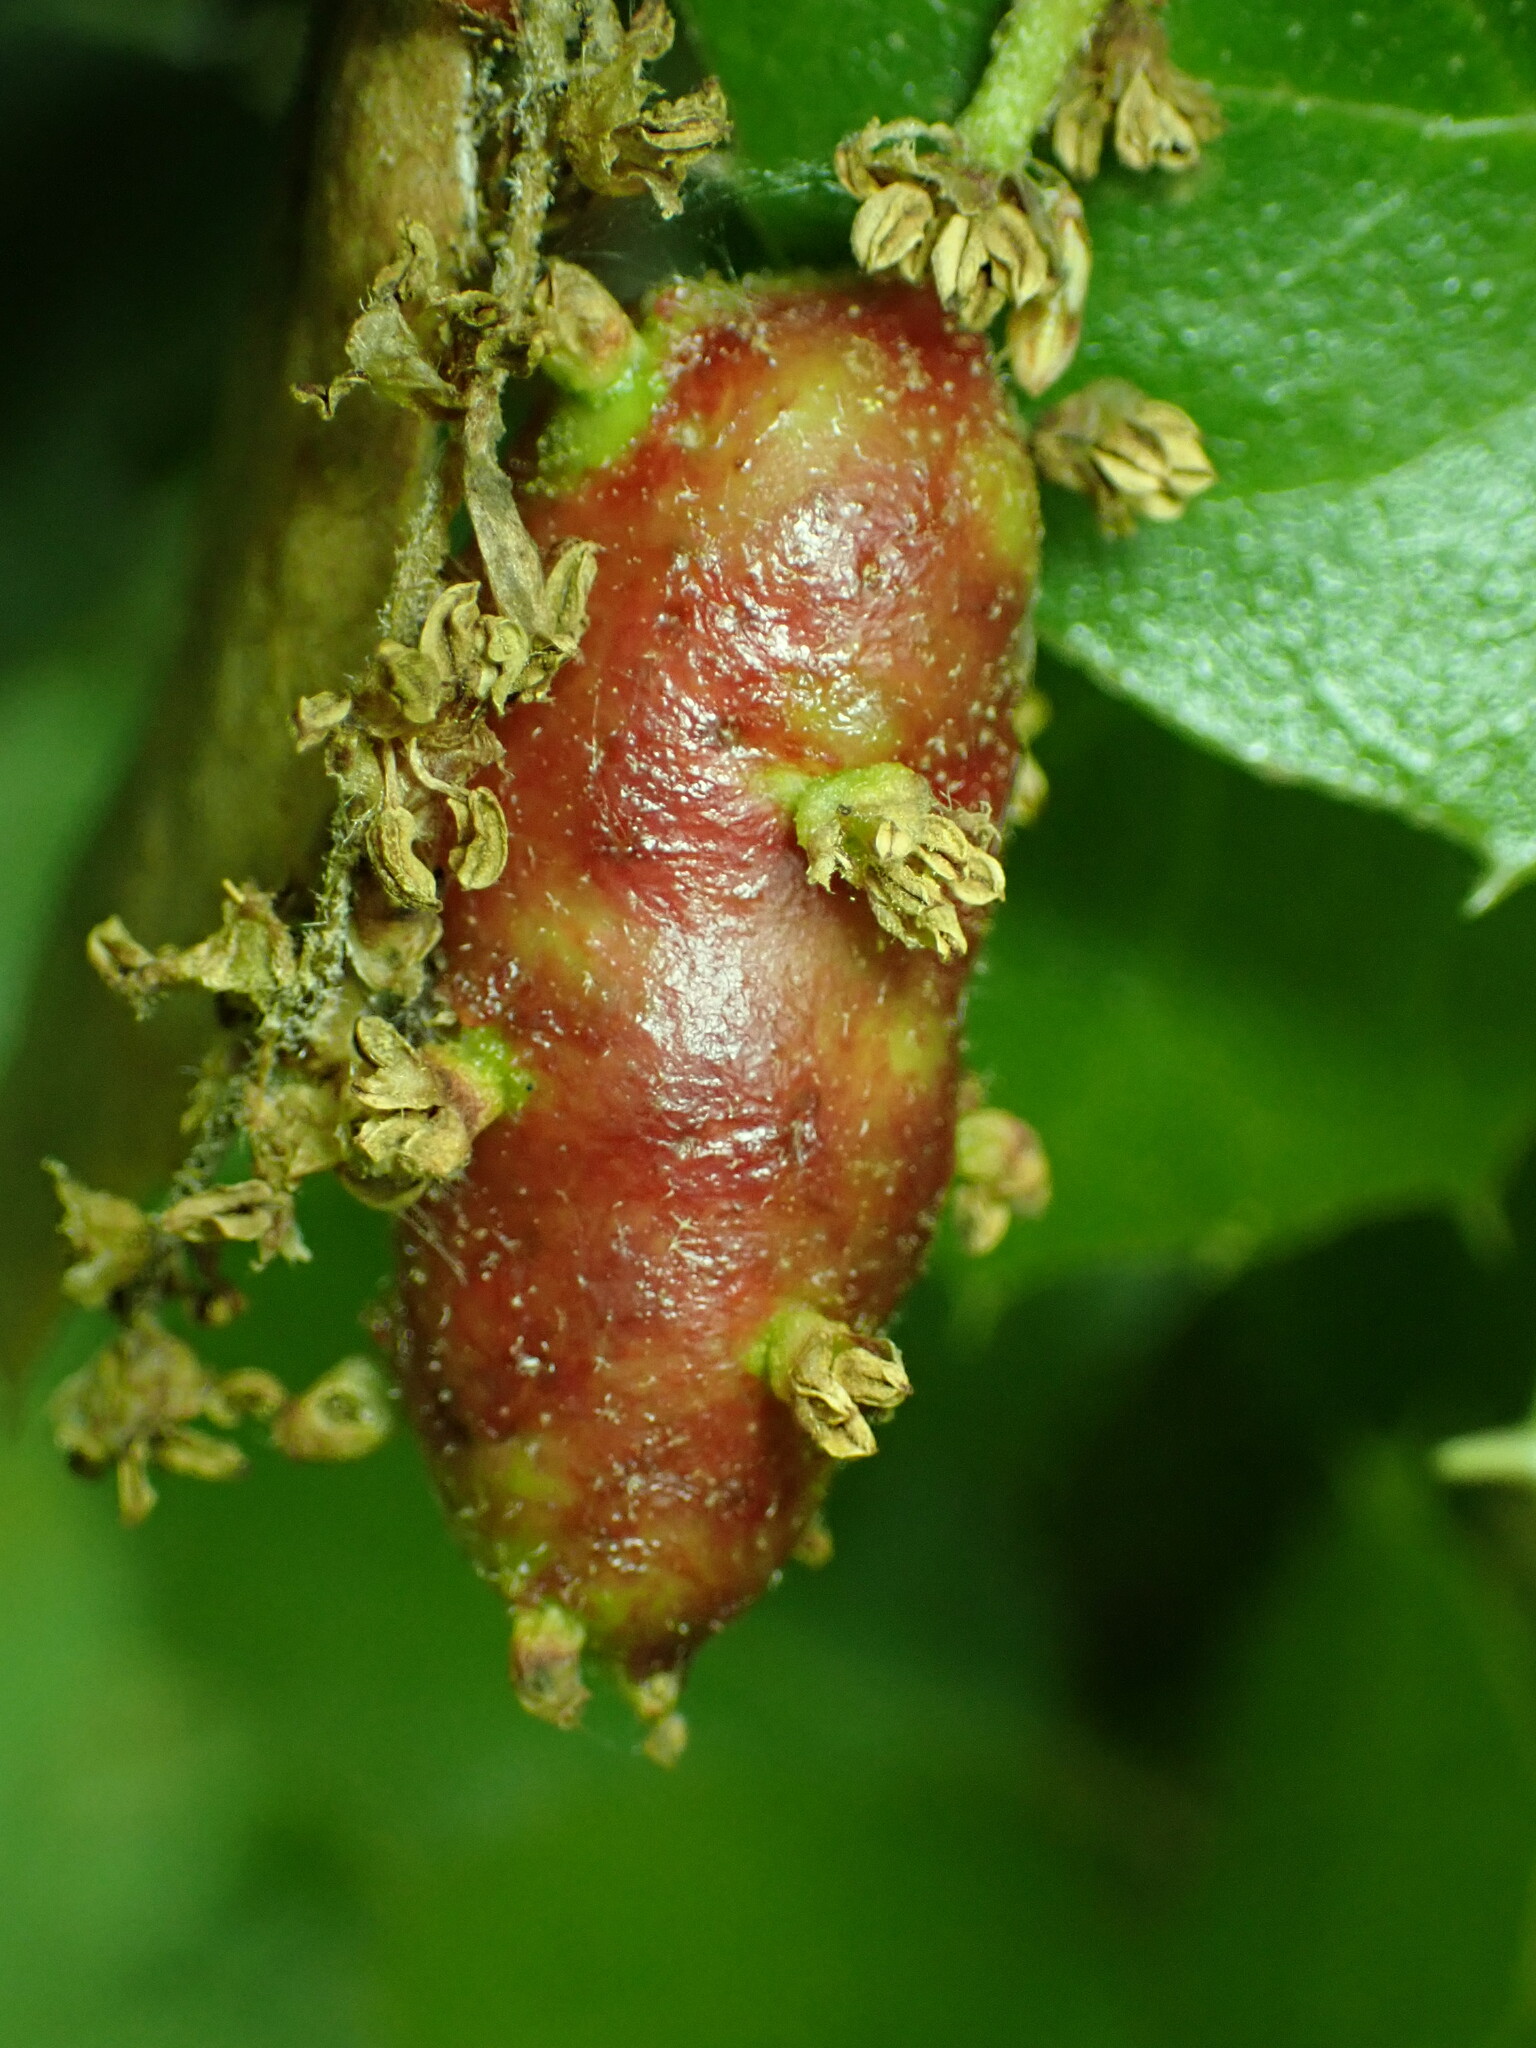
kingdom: Animalia
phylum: Arthropoda
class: Insecta
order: Hymenoptera
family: Cynipidae
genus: Callirhytis
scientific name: Callirhytis
